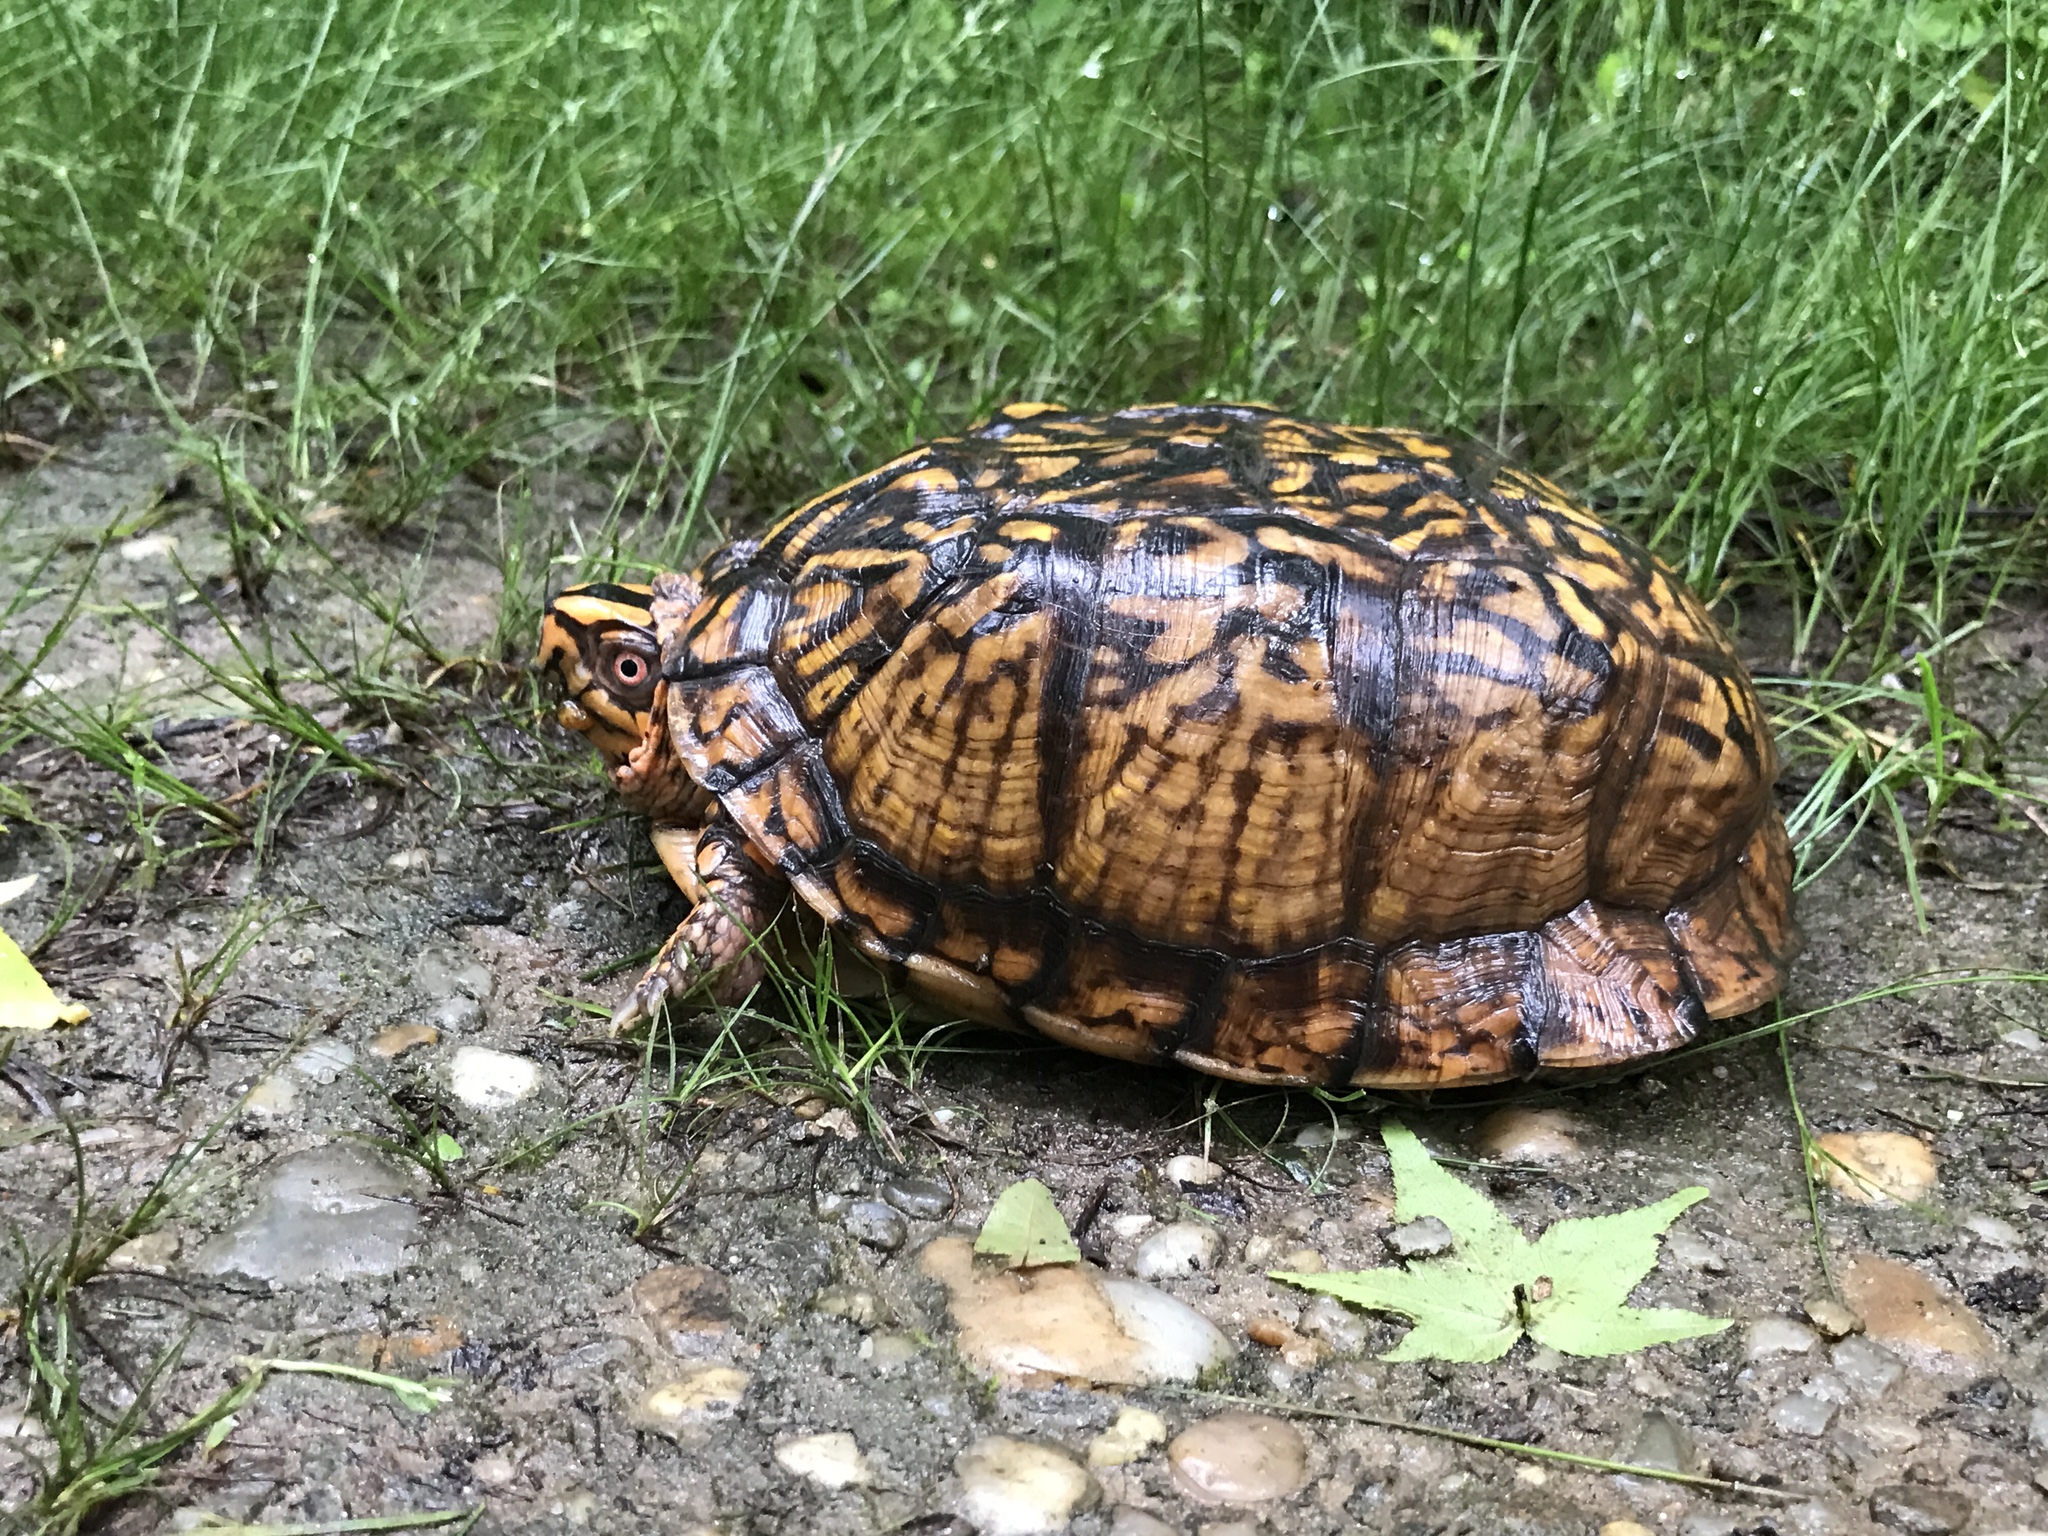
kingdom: Animalia
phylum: Chordata
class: Testudines
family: Emydidae
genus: Terrapene
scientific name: Terrapene carolina
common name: Common box turtle
